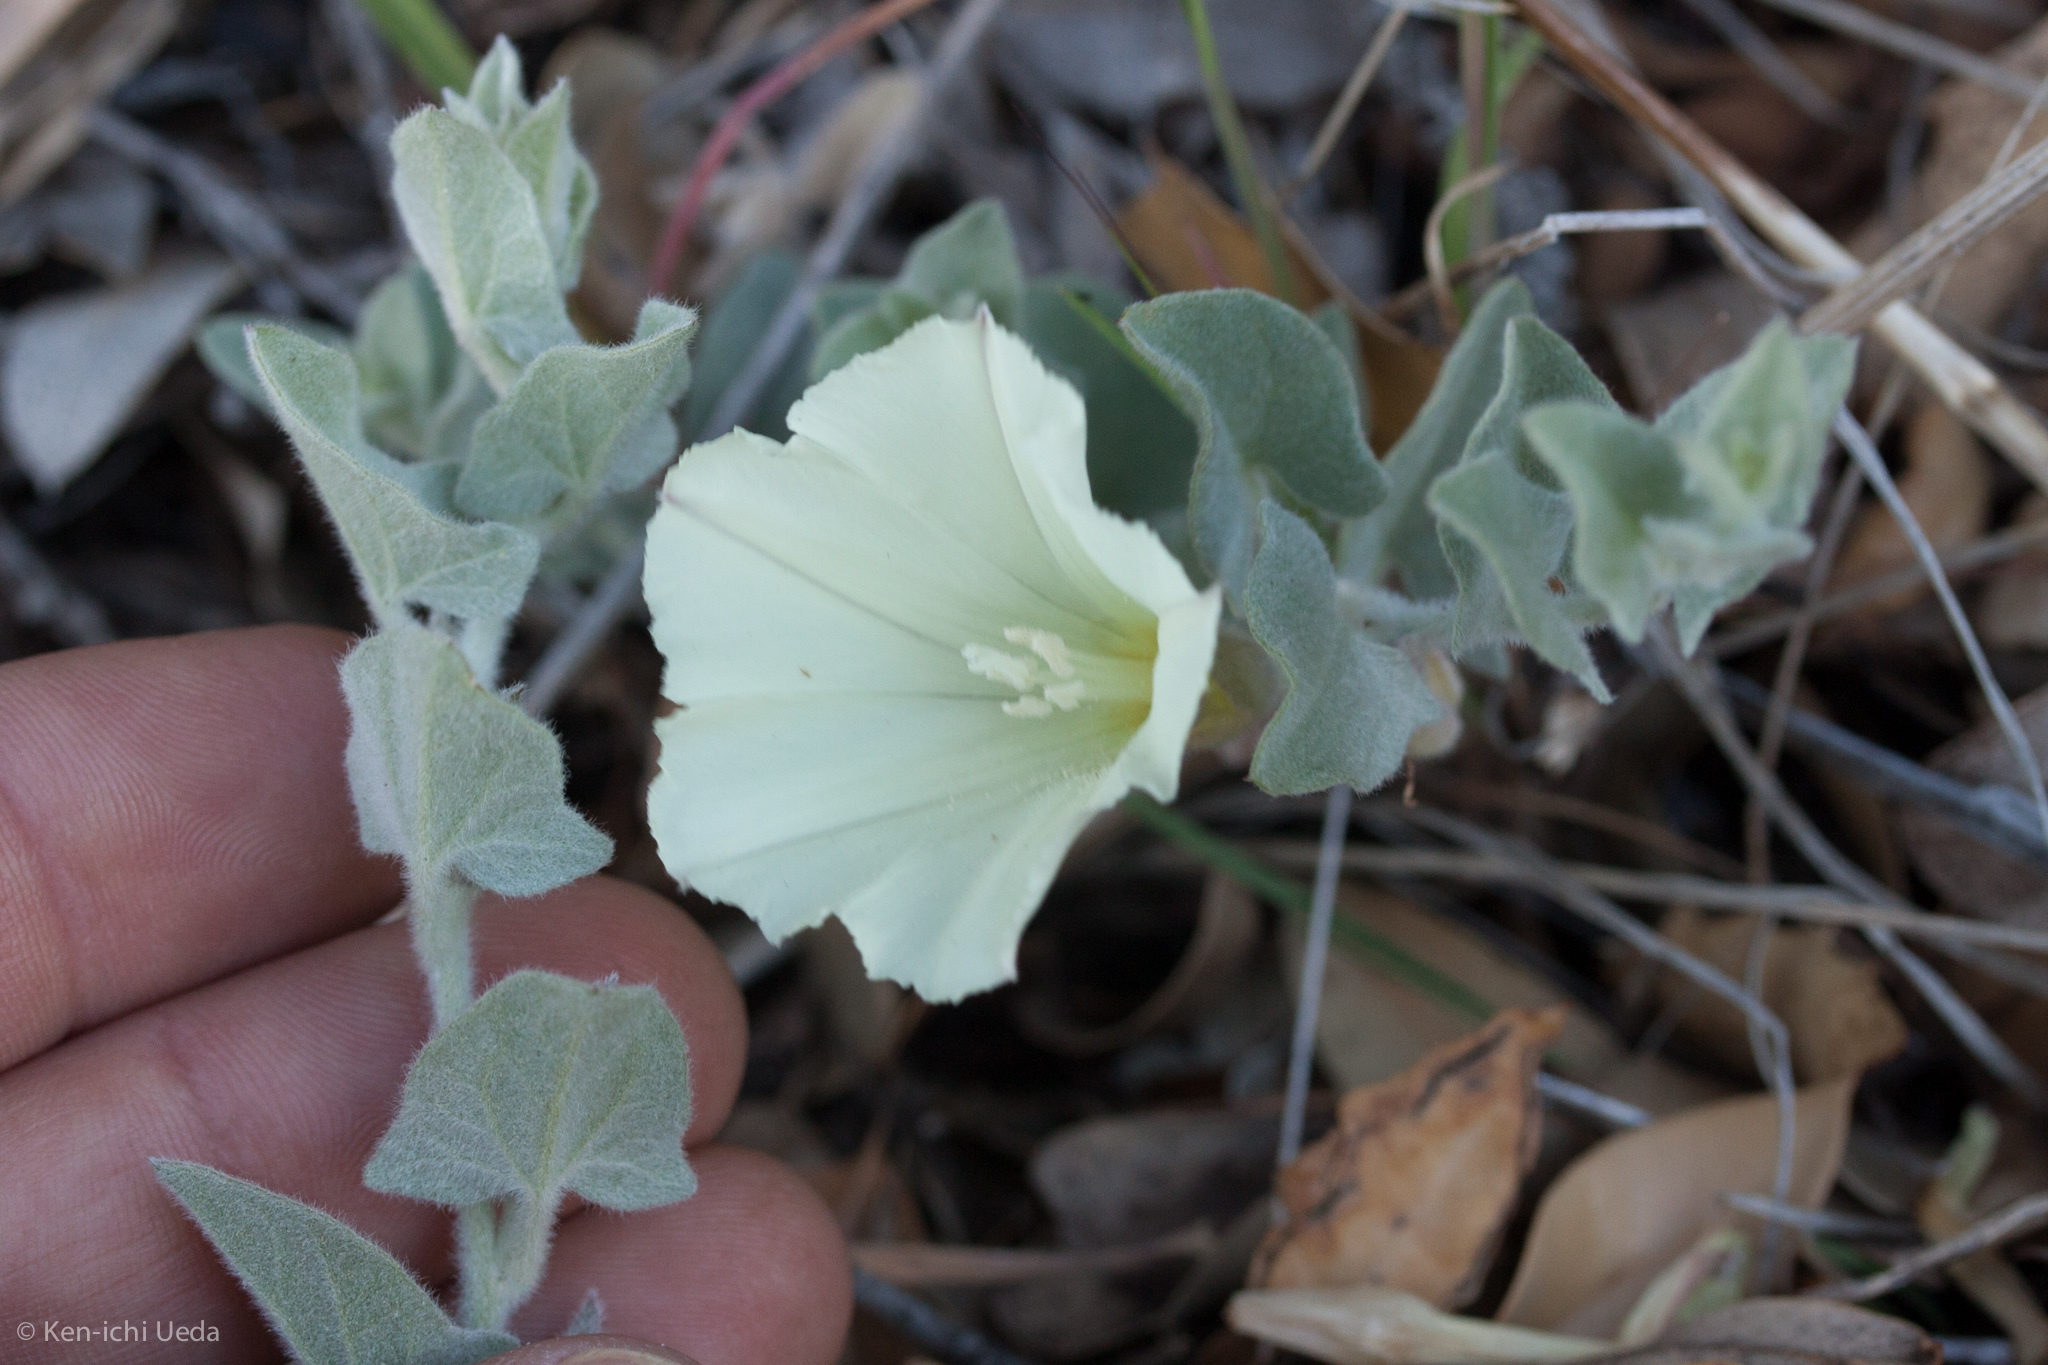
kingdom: Plantae
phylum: Tracheophyta
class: Magnoliopsida
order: Solanales
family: Convolvulaceae
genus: Calystegia
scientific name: Calystegia malacophylla
